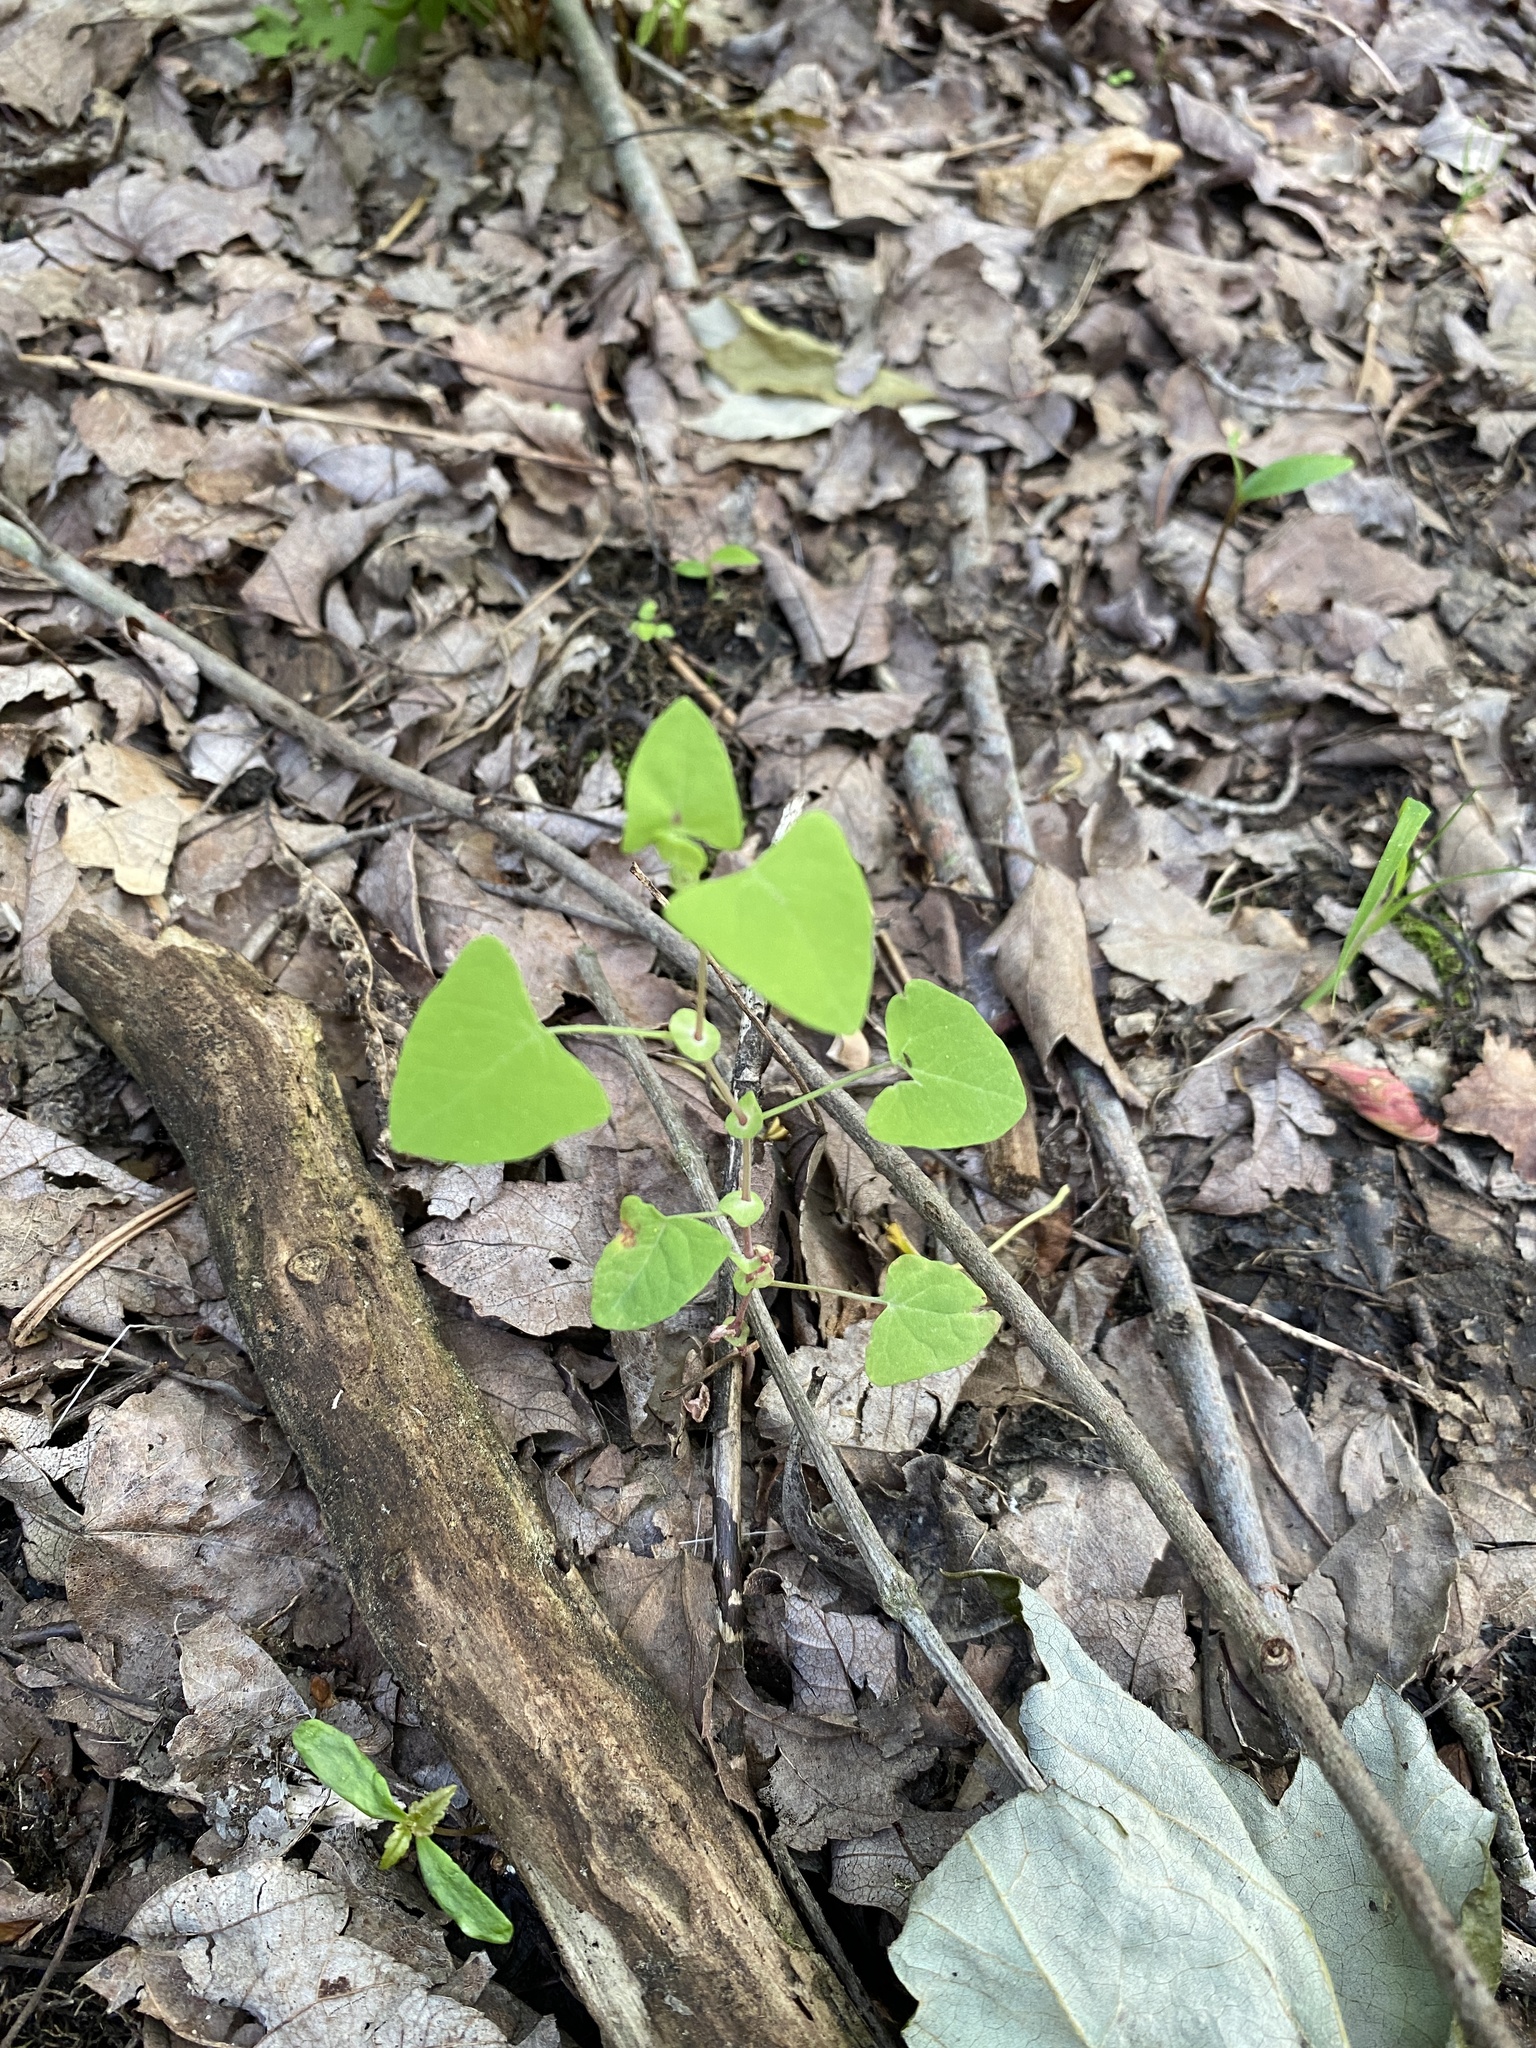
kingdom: Plantae
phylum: Tracheophyta
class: Magnoliopsida
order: Caryophyllales
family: Polygonaceae
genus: Persicaria
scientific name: Persicaria perfoliata
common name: Asiatic tearthumb
